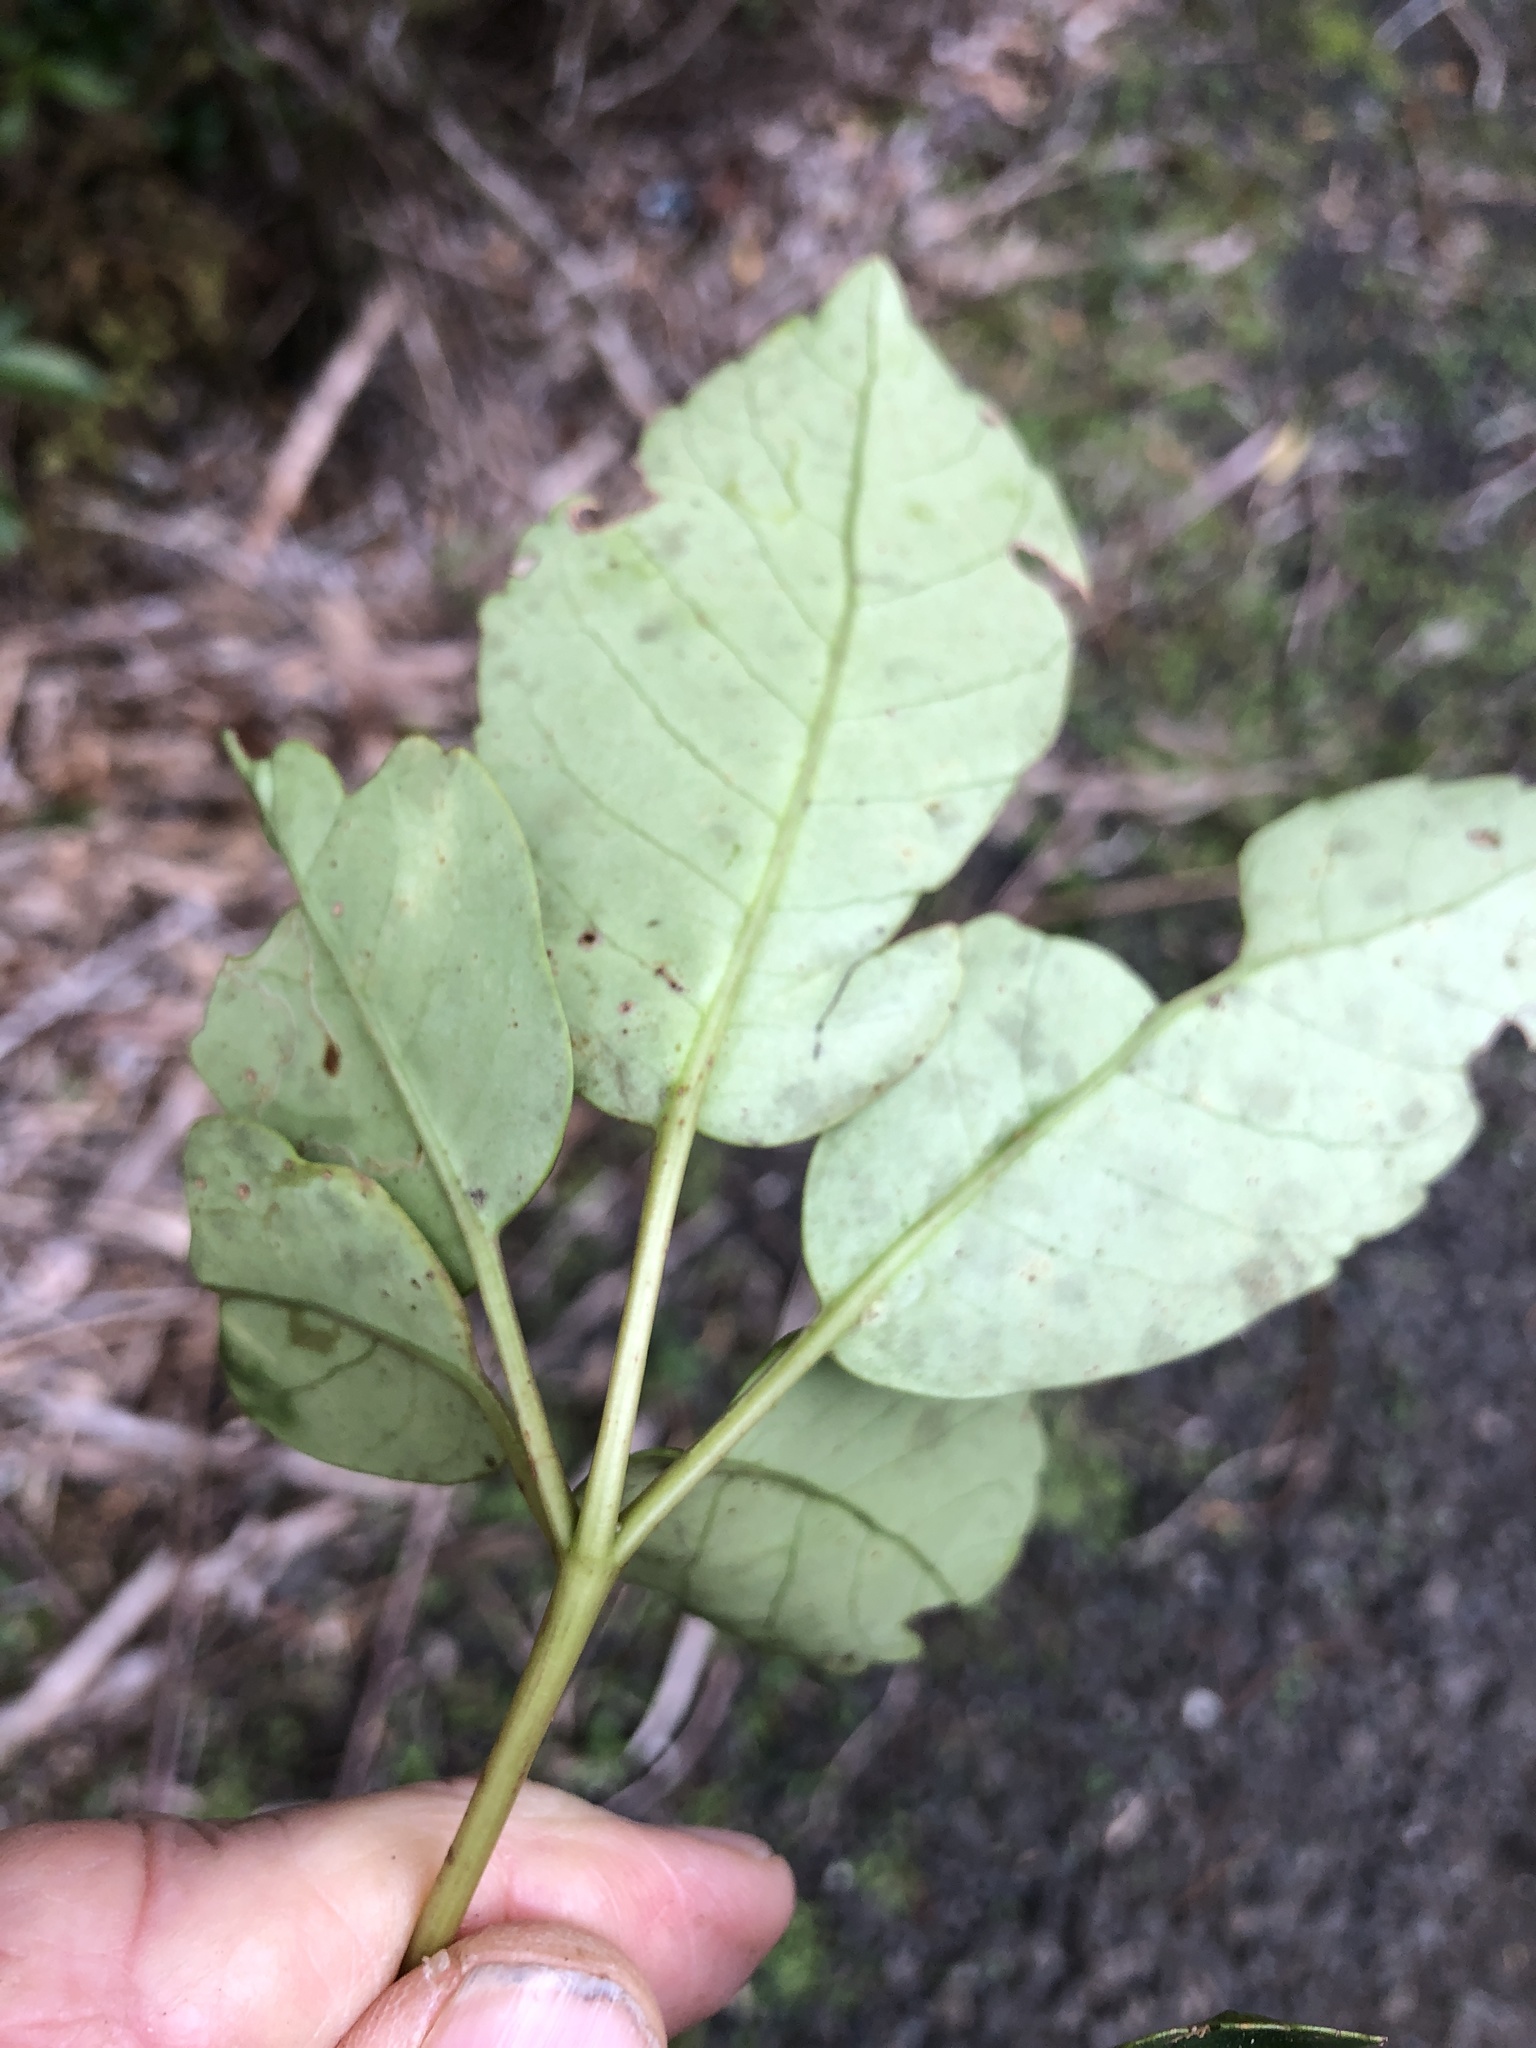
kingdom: Plantae
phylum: Tracheophyta
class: Magnoliopsida
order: Apiales
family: Araliaceae
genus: Neopanax
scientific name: Neopanax arboreus
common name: Five-fingers
